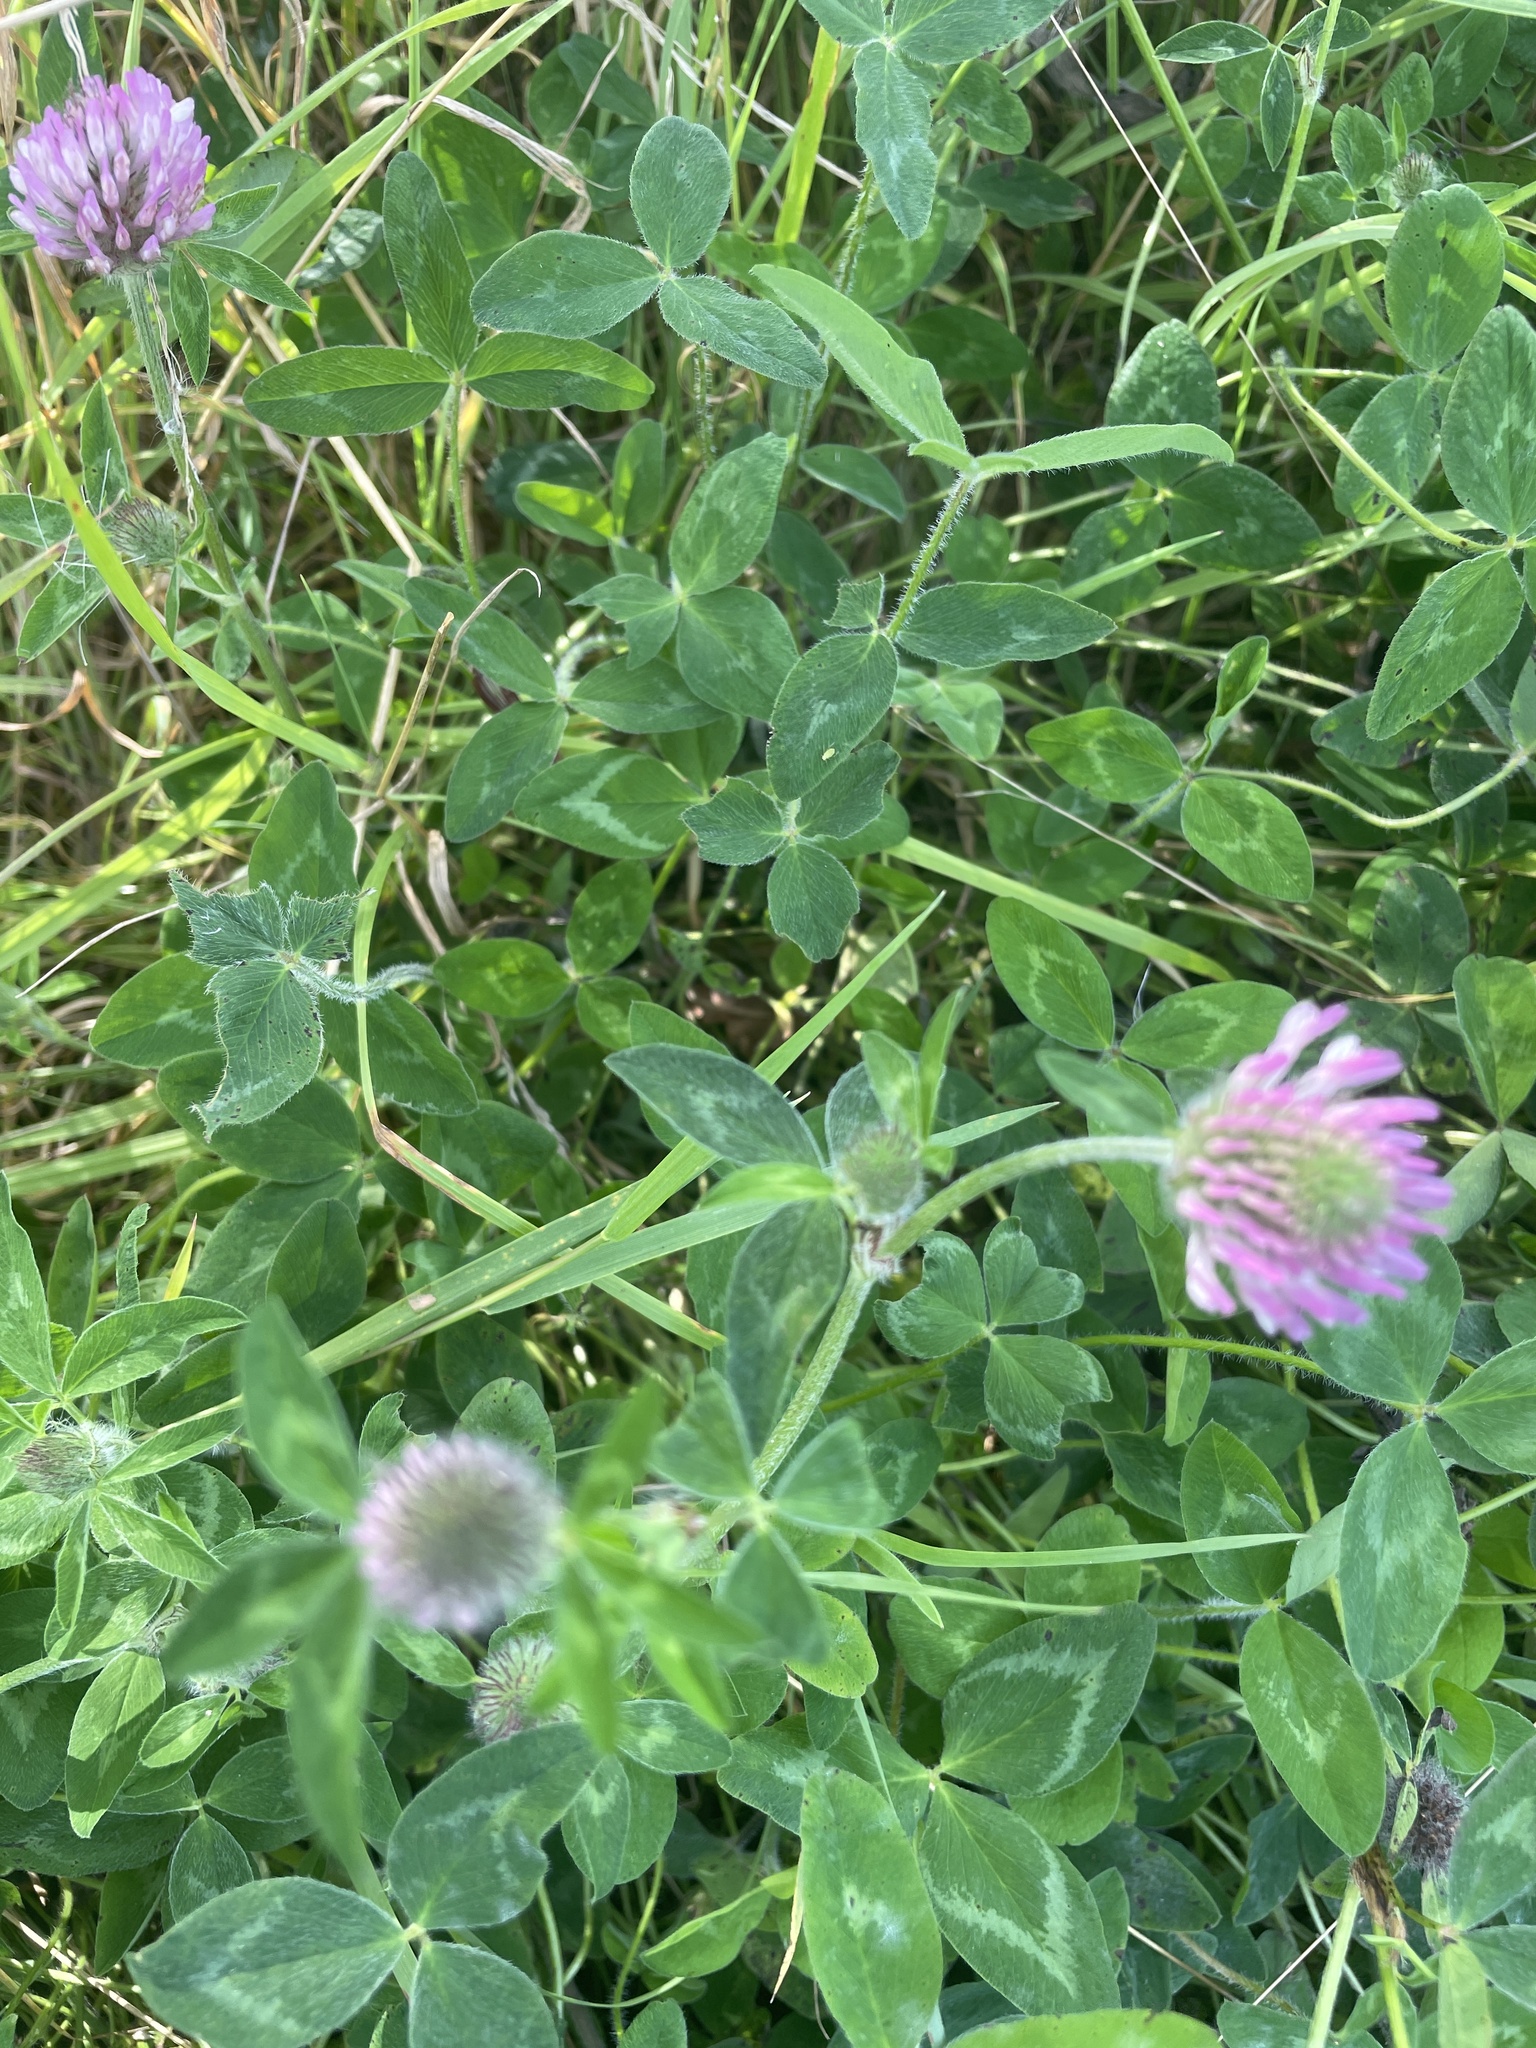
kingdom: Plantae
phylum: Tracheophyta
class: Magnoliopsida
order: Fabales
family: Fabaceae
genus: Trifolium
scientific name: Trifolium pratense
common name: Red clover
